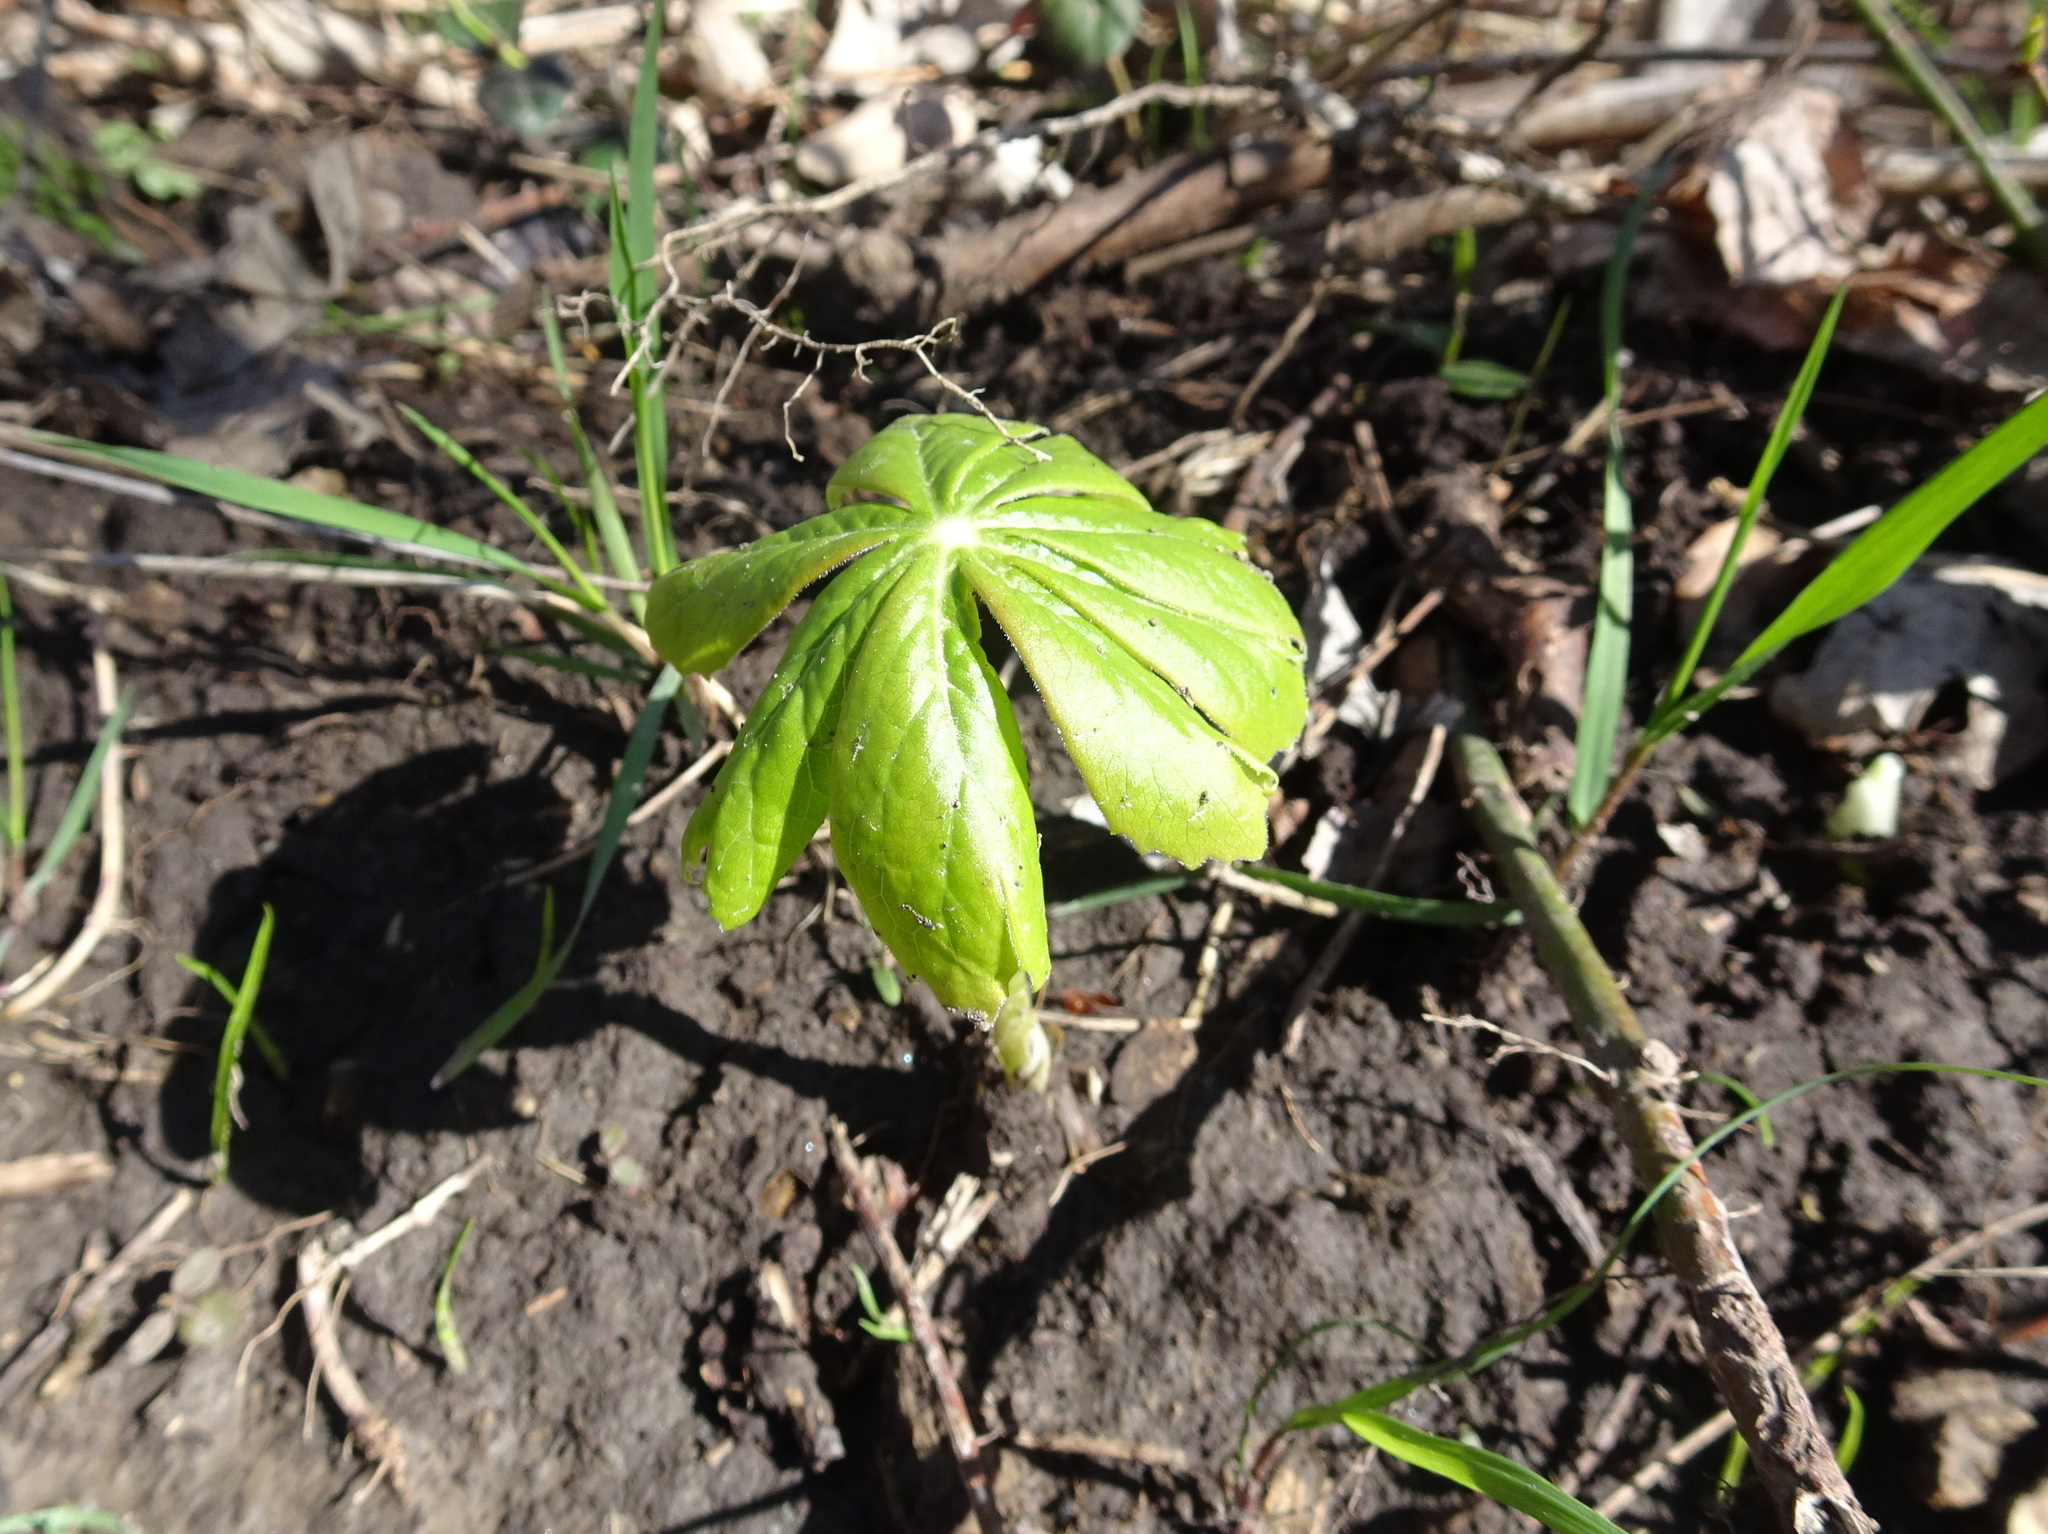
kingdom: Plantae
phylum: Tracheophyta
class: Magnoliopsida
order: Ranunculales
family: Berberidaceae
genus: Podophyllum
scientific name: Podophyllum peltatum
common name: Wild mandrake
